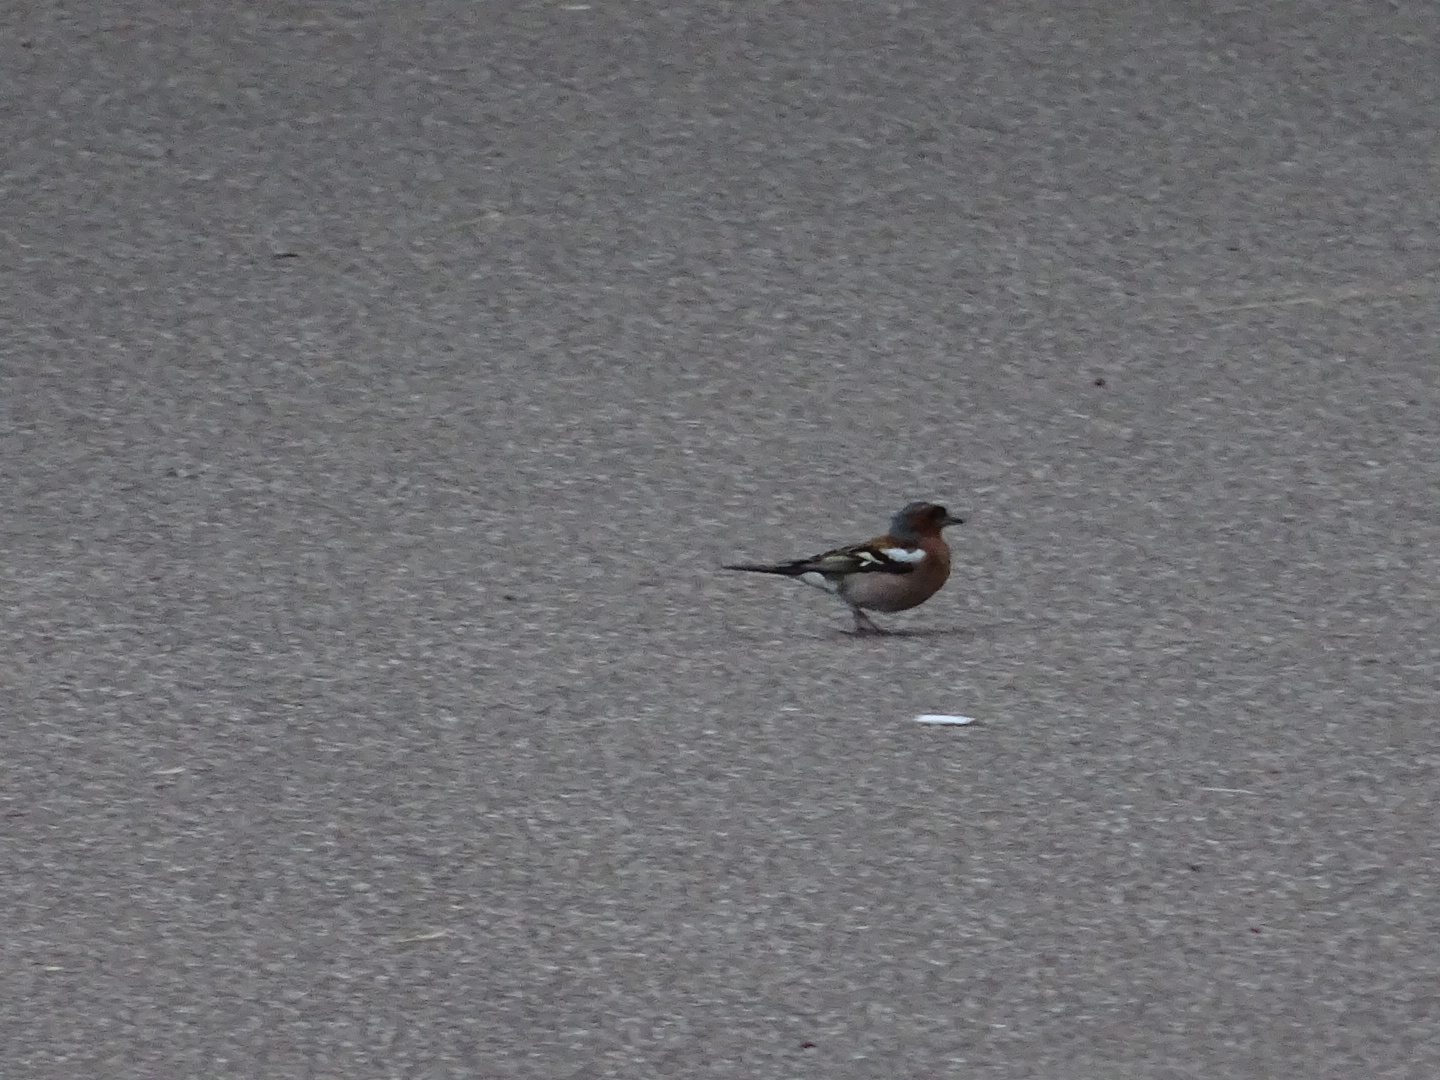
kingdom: Animalia
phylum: Chordata
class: Aves
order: Passeriformes
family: Fringillidae
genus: Fringilla
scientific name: Fringilla coelebs
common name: Common chaffinch
